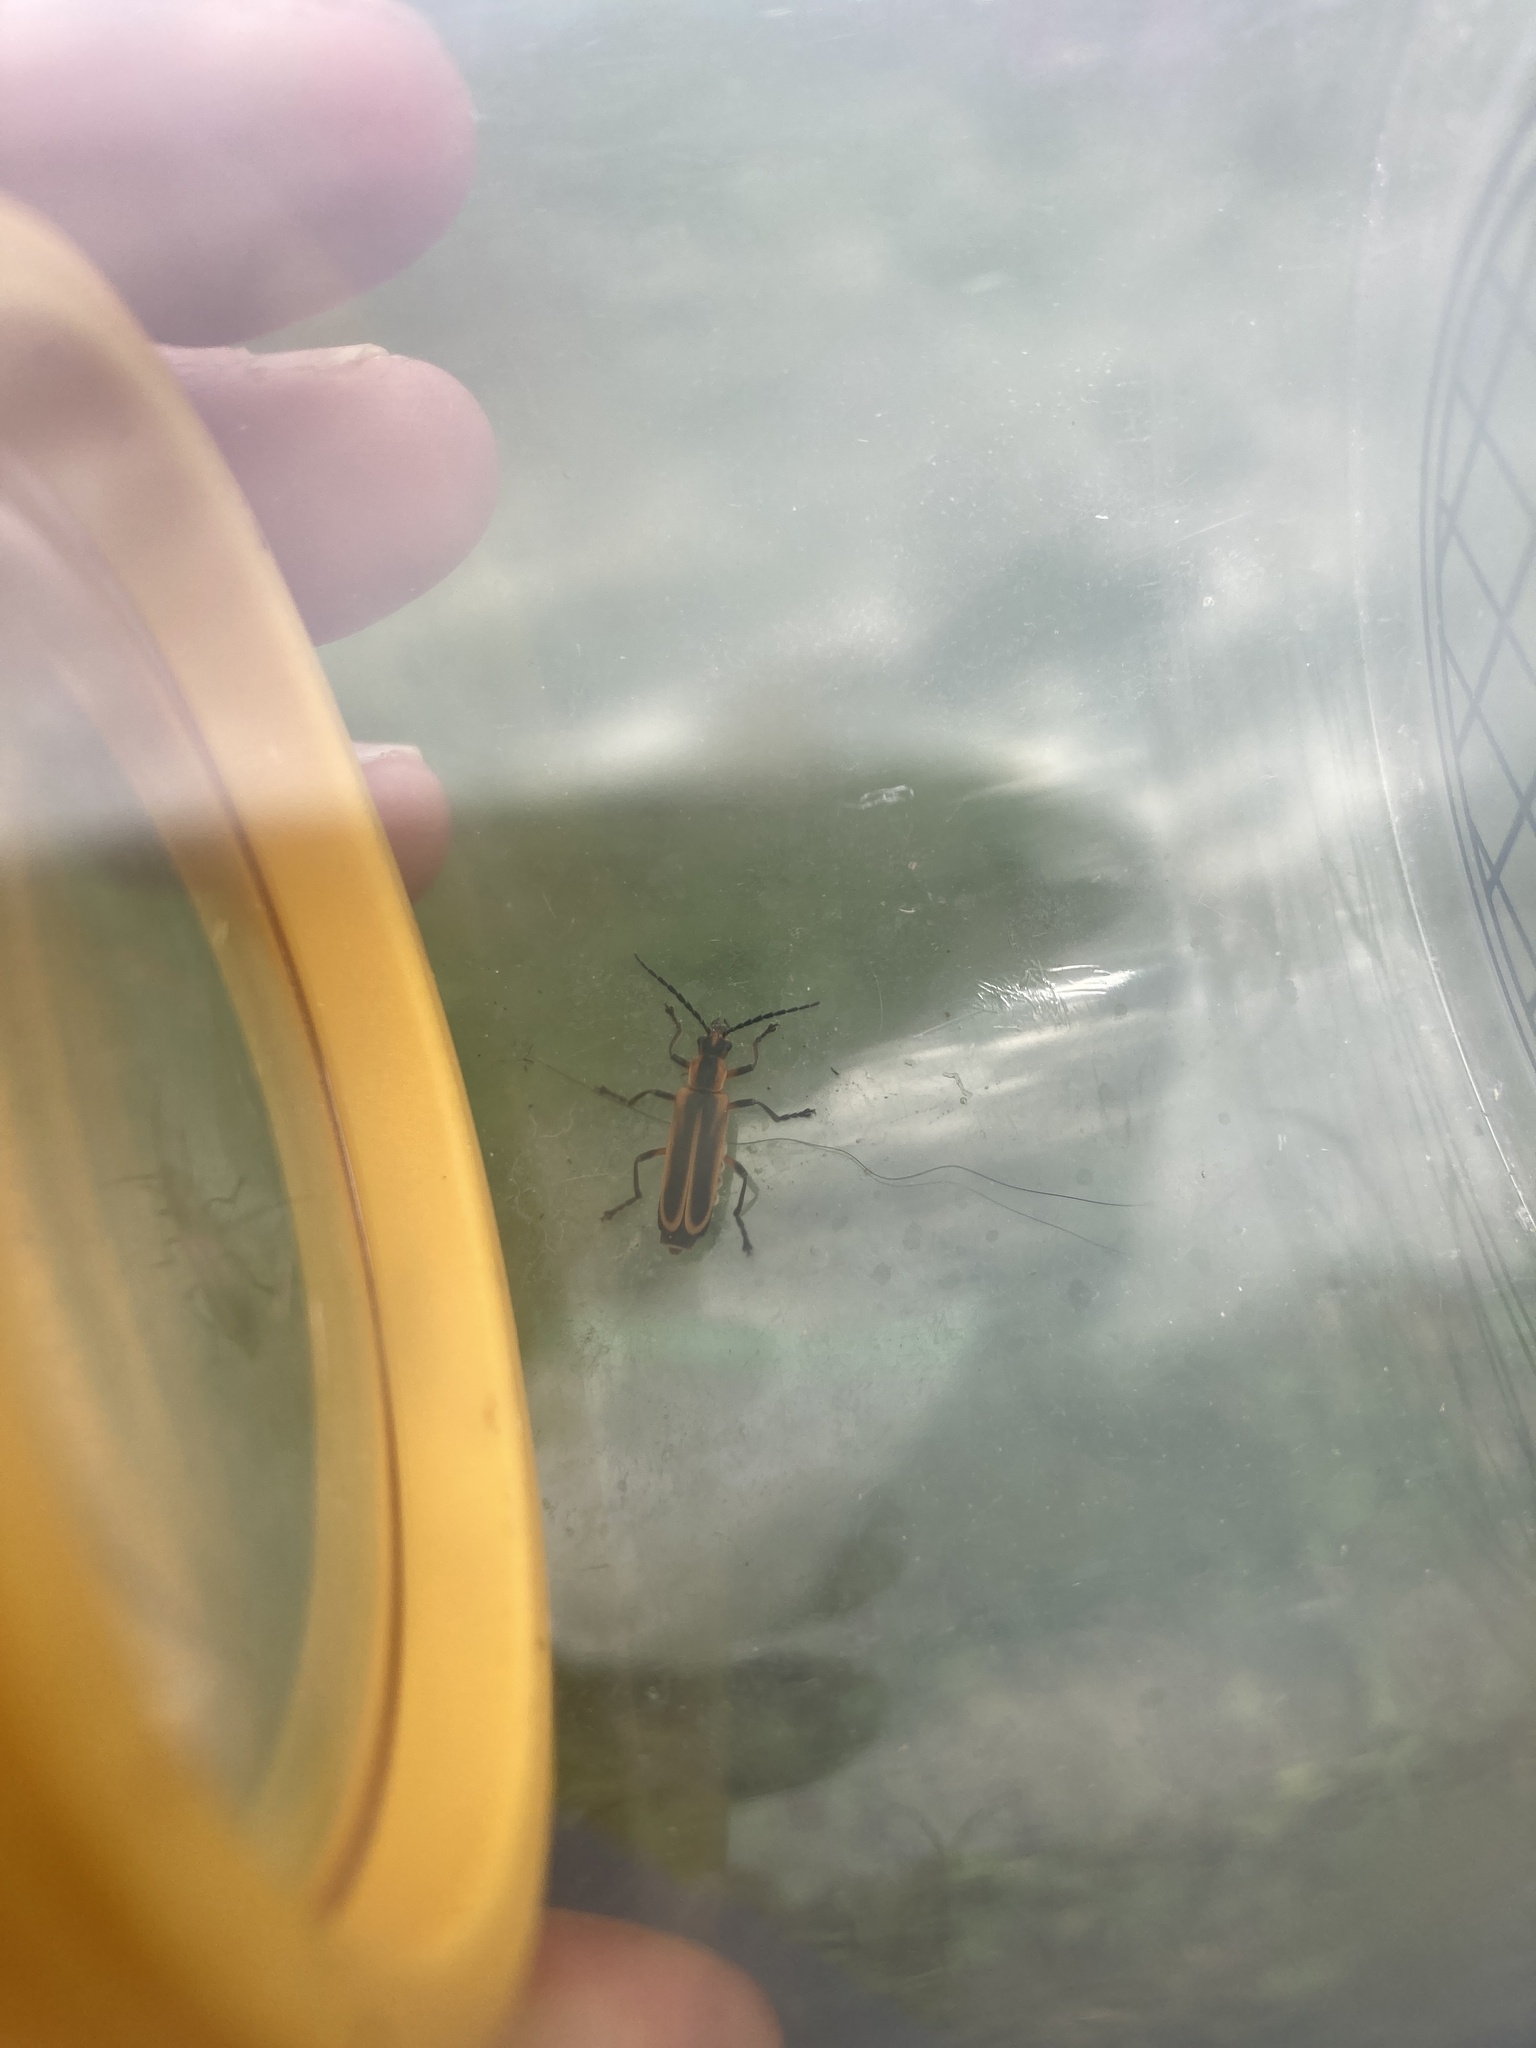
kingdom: Animalia
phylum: Arthropoda
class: Insecta
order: Coleoptera
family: Cantharidae
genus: Chauliognathus
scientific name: Chauliognathus marginatus
